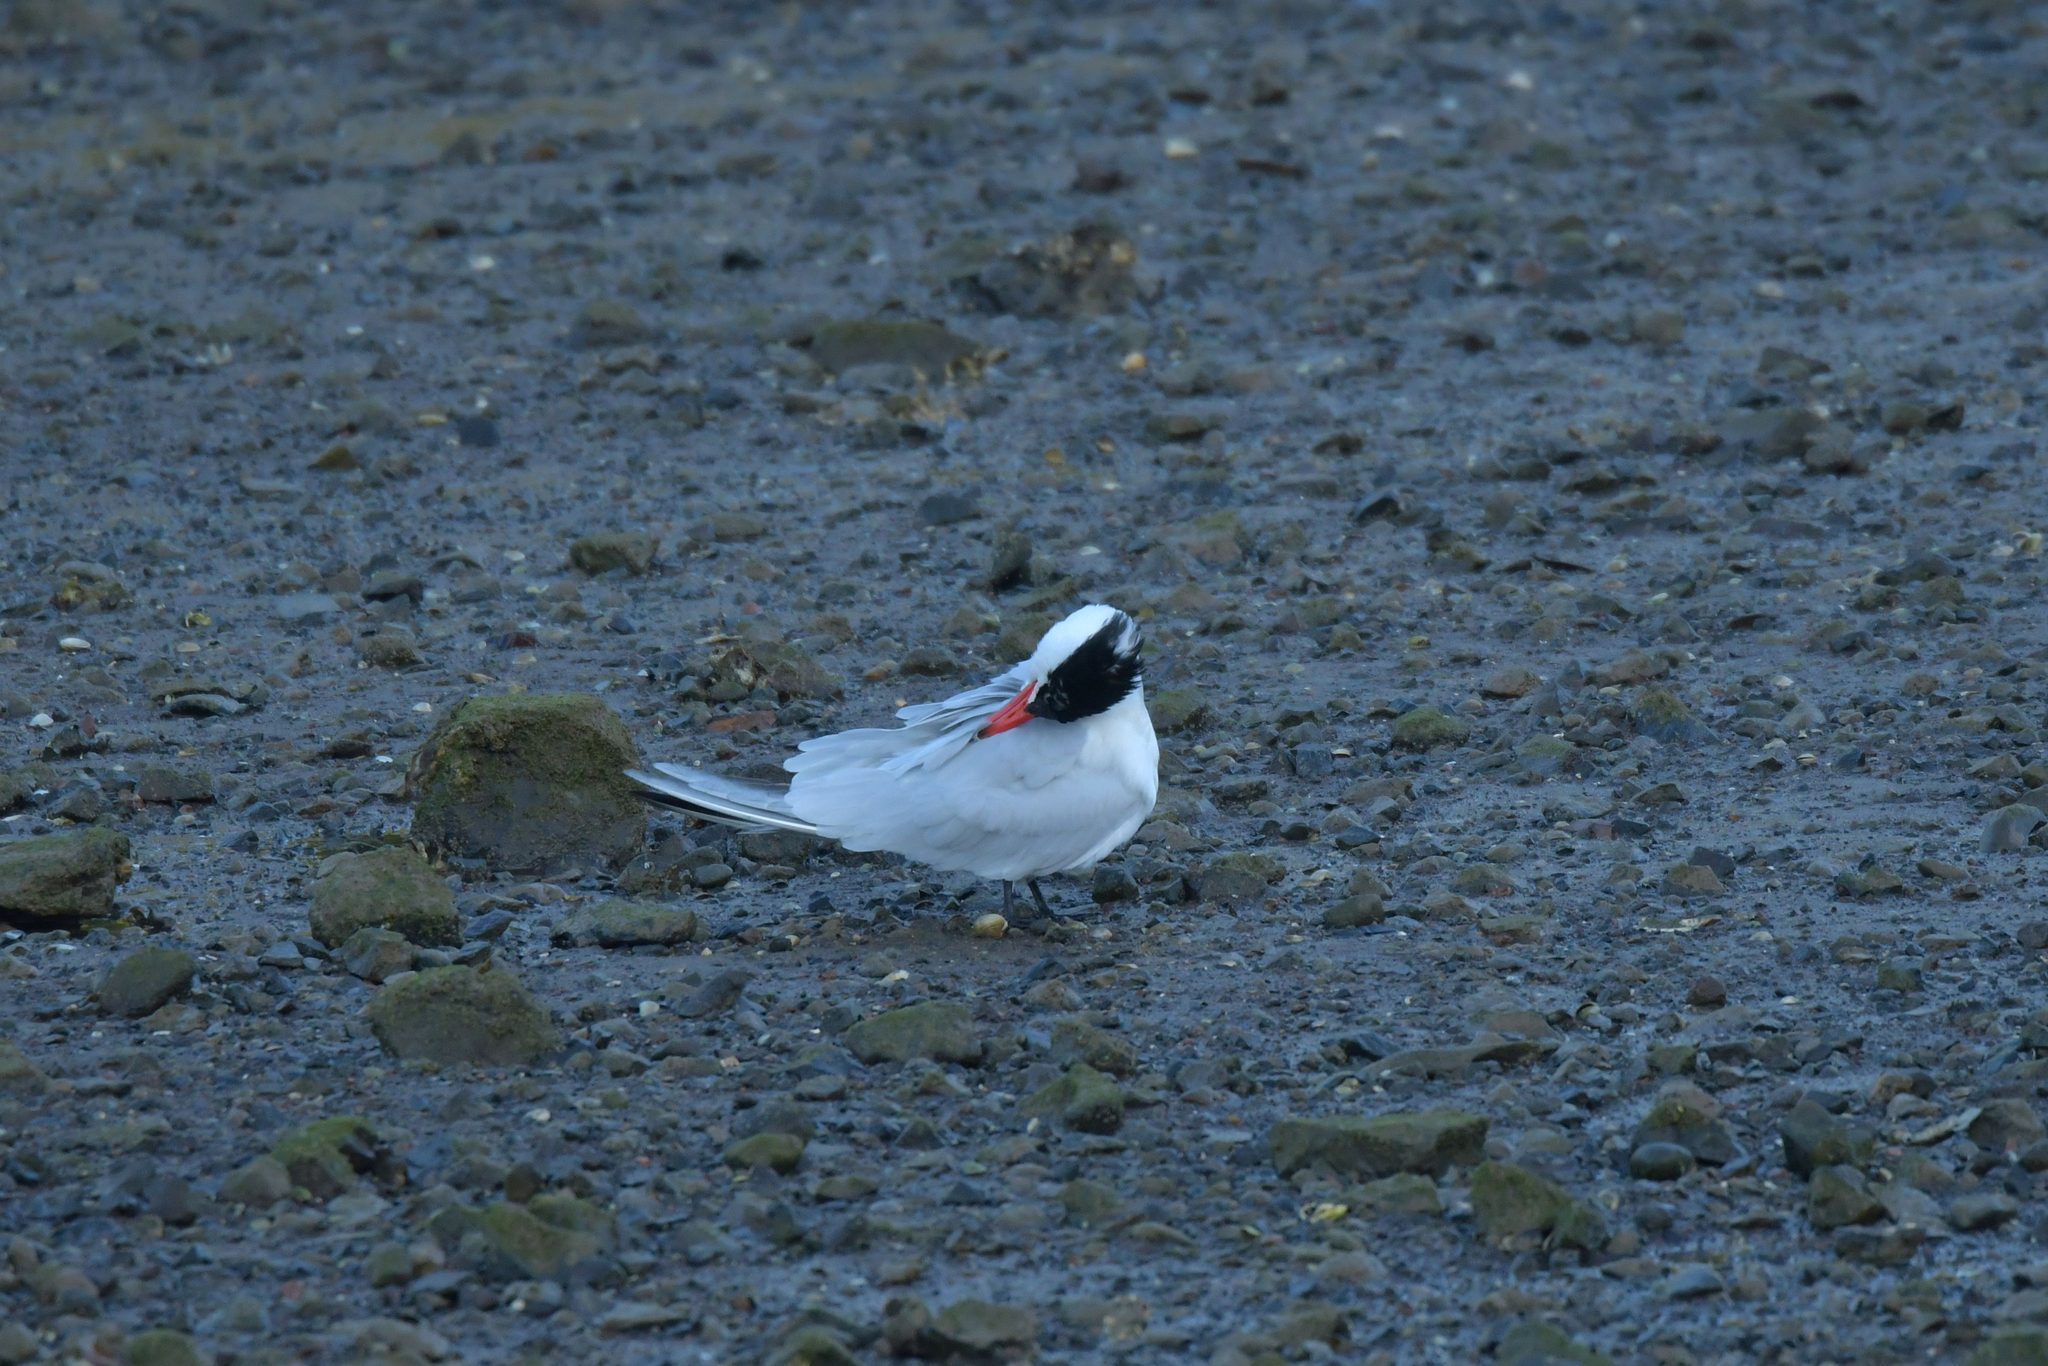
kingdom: Animalia
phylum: Chordata
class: Aves
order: Charadriiformes
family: Laridae
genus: Hydroprogne
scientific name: Hydroprogne caspia
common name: Caspian tern
